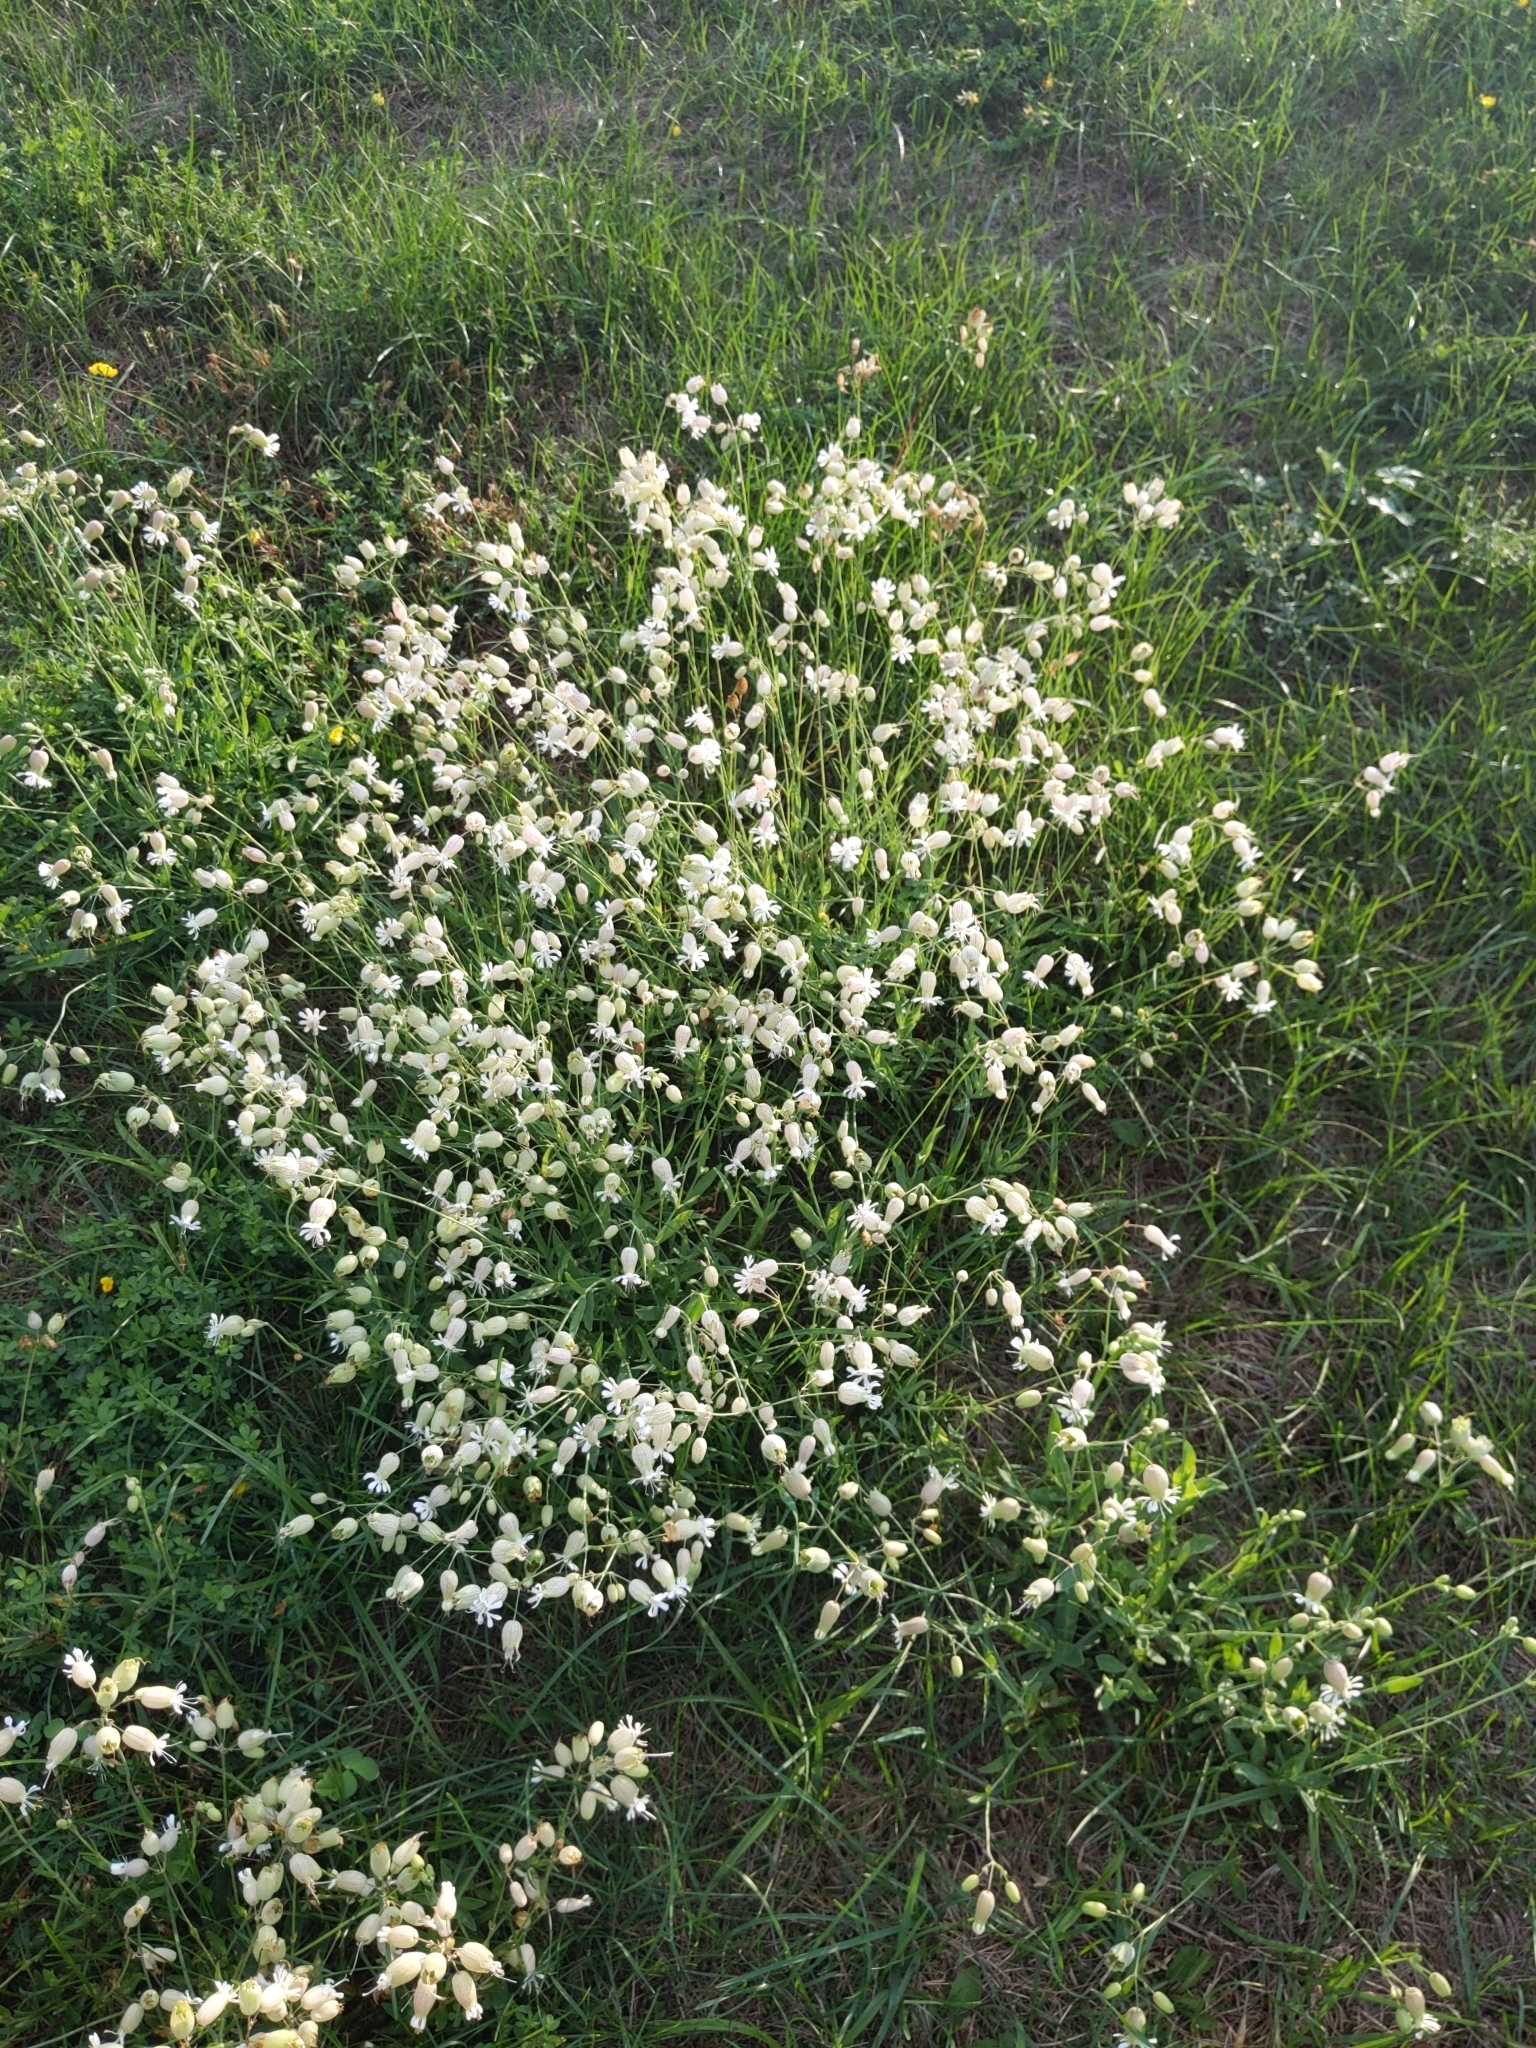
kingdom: Plantae
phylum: Tracheophyta
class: Magnoliopsida
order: Caryophyllales
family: Caryophyllaceae
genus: Silene
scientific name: Silene vulgaris
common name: Bladder campion
